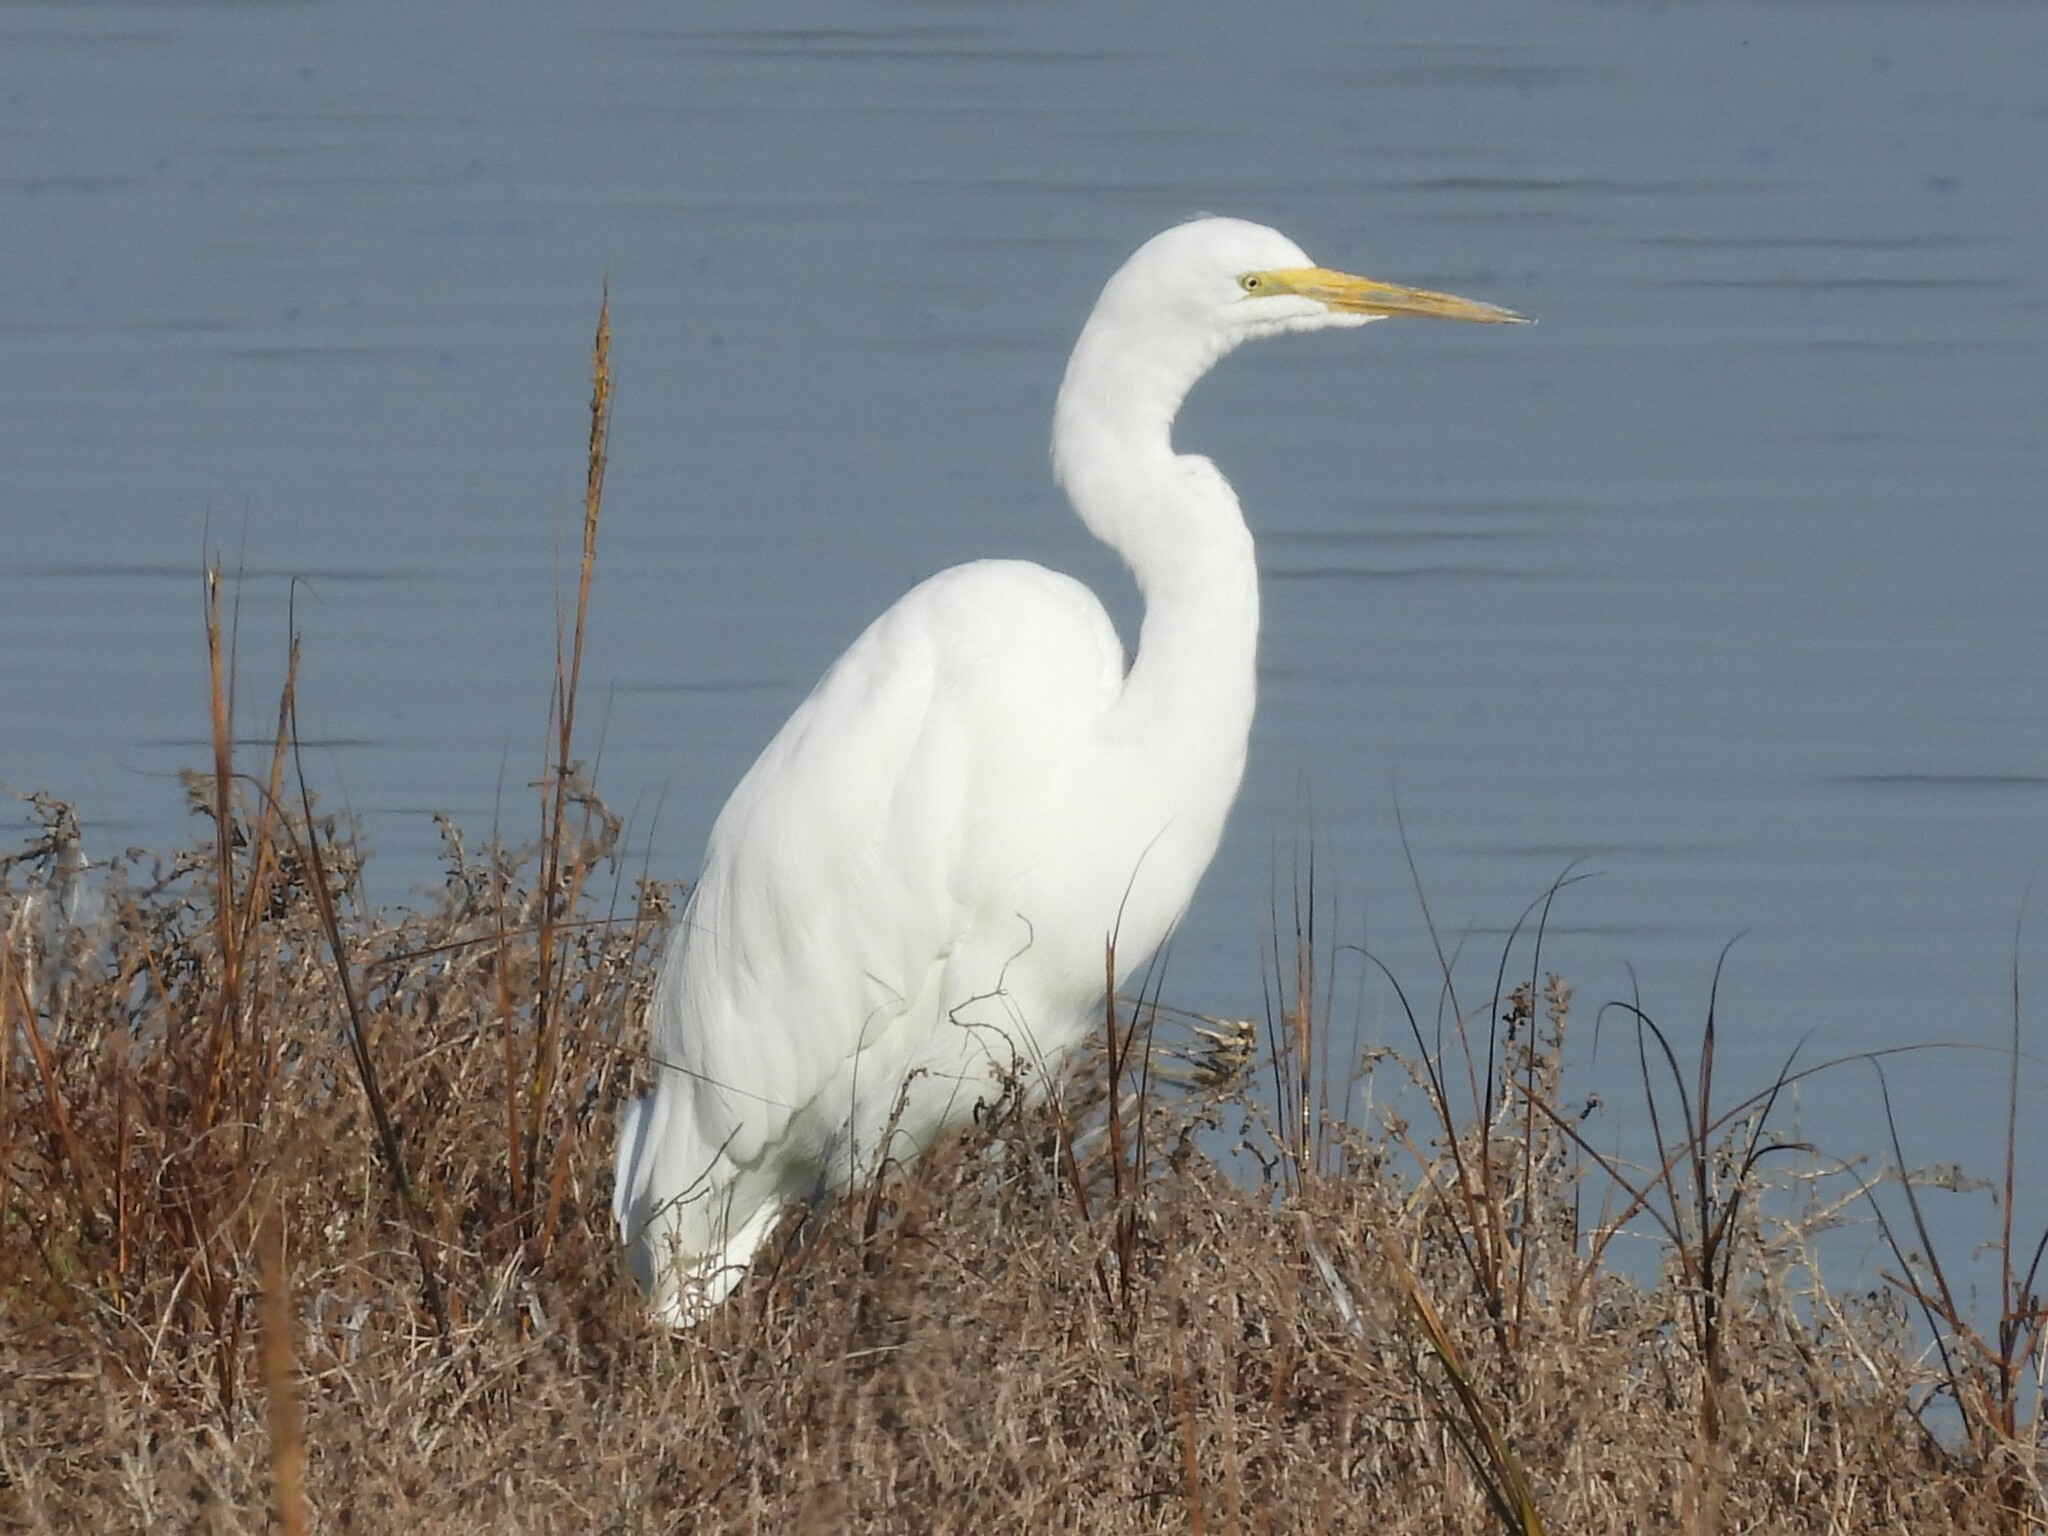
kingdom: Animalia
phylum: Chordata
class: Aves
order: Pelecaniformes
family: Ardeidae
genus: Ardea
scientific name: Ardea alba
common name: Great egret
